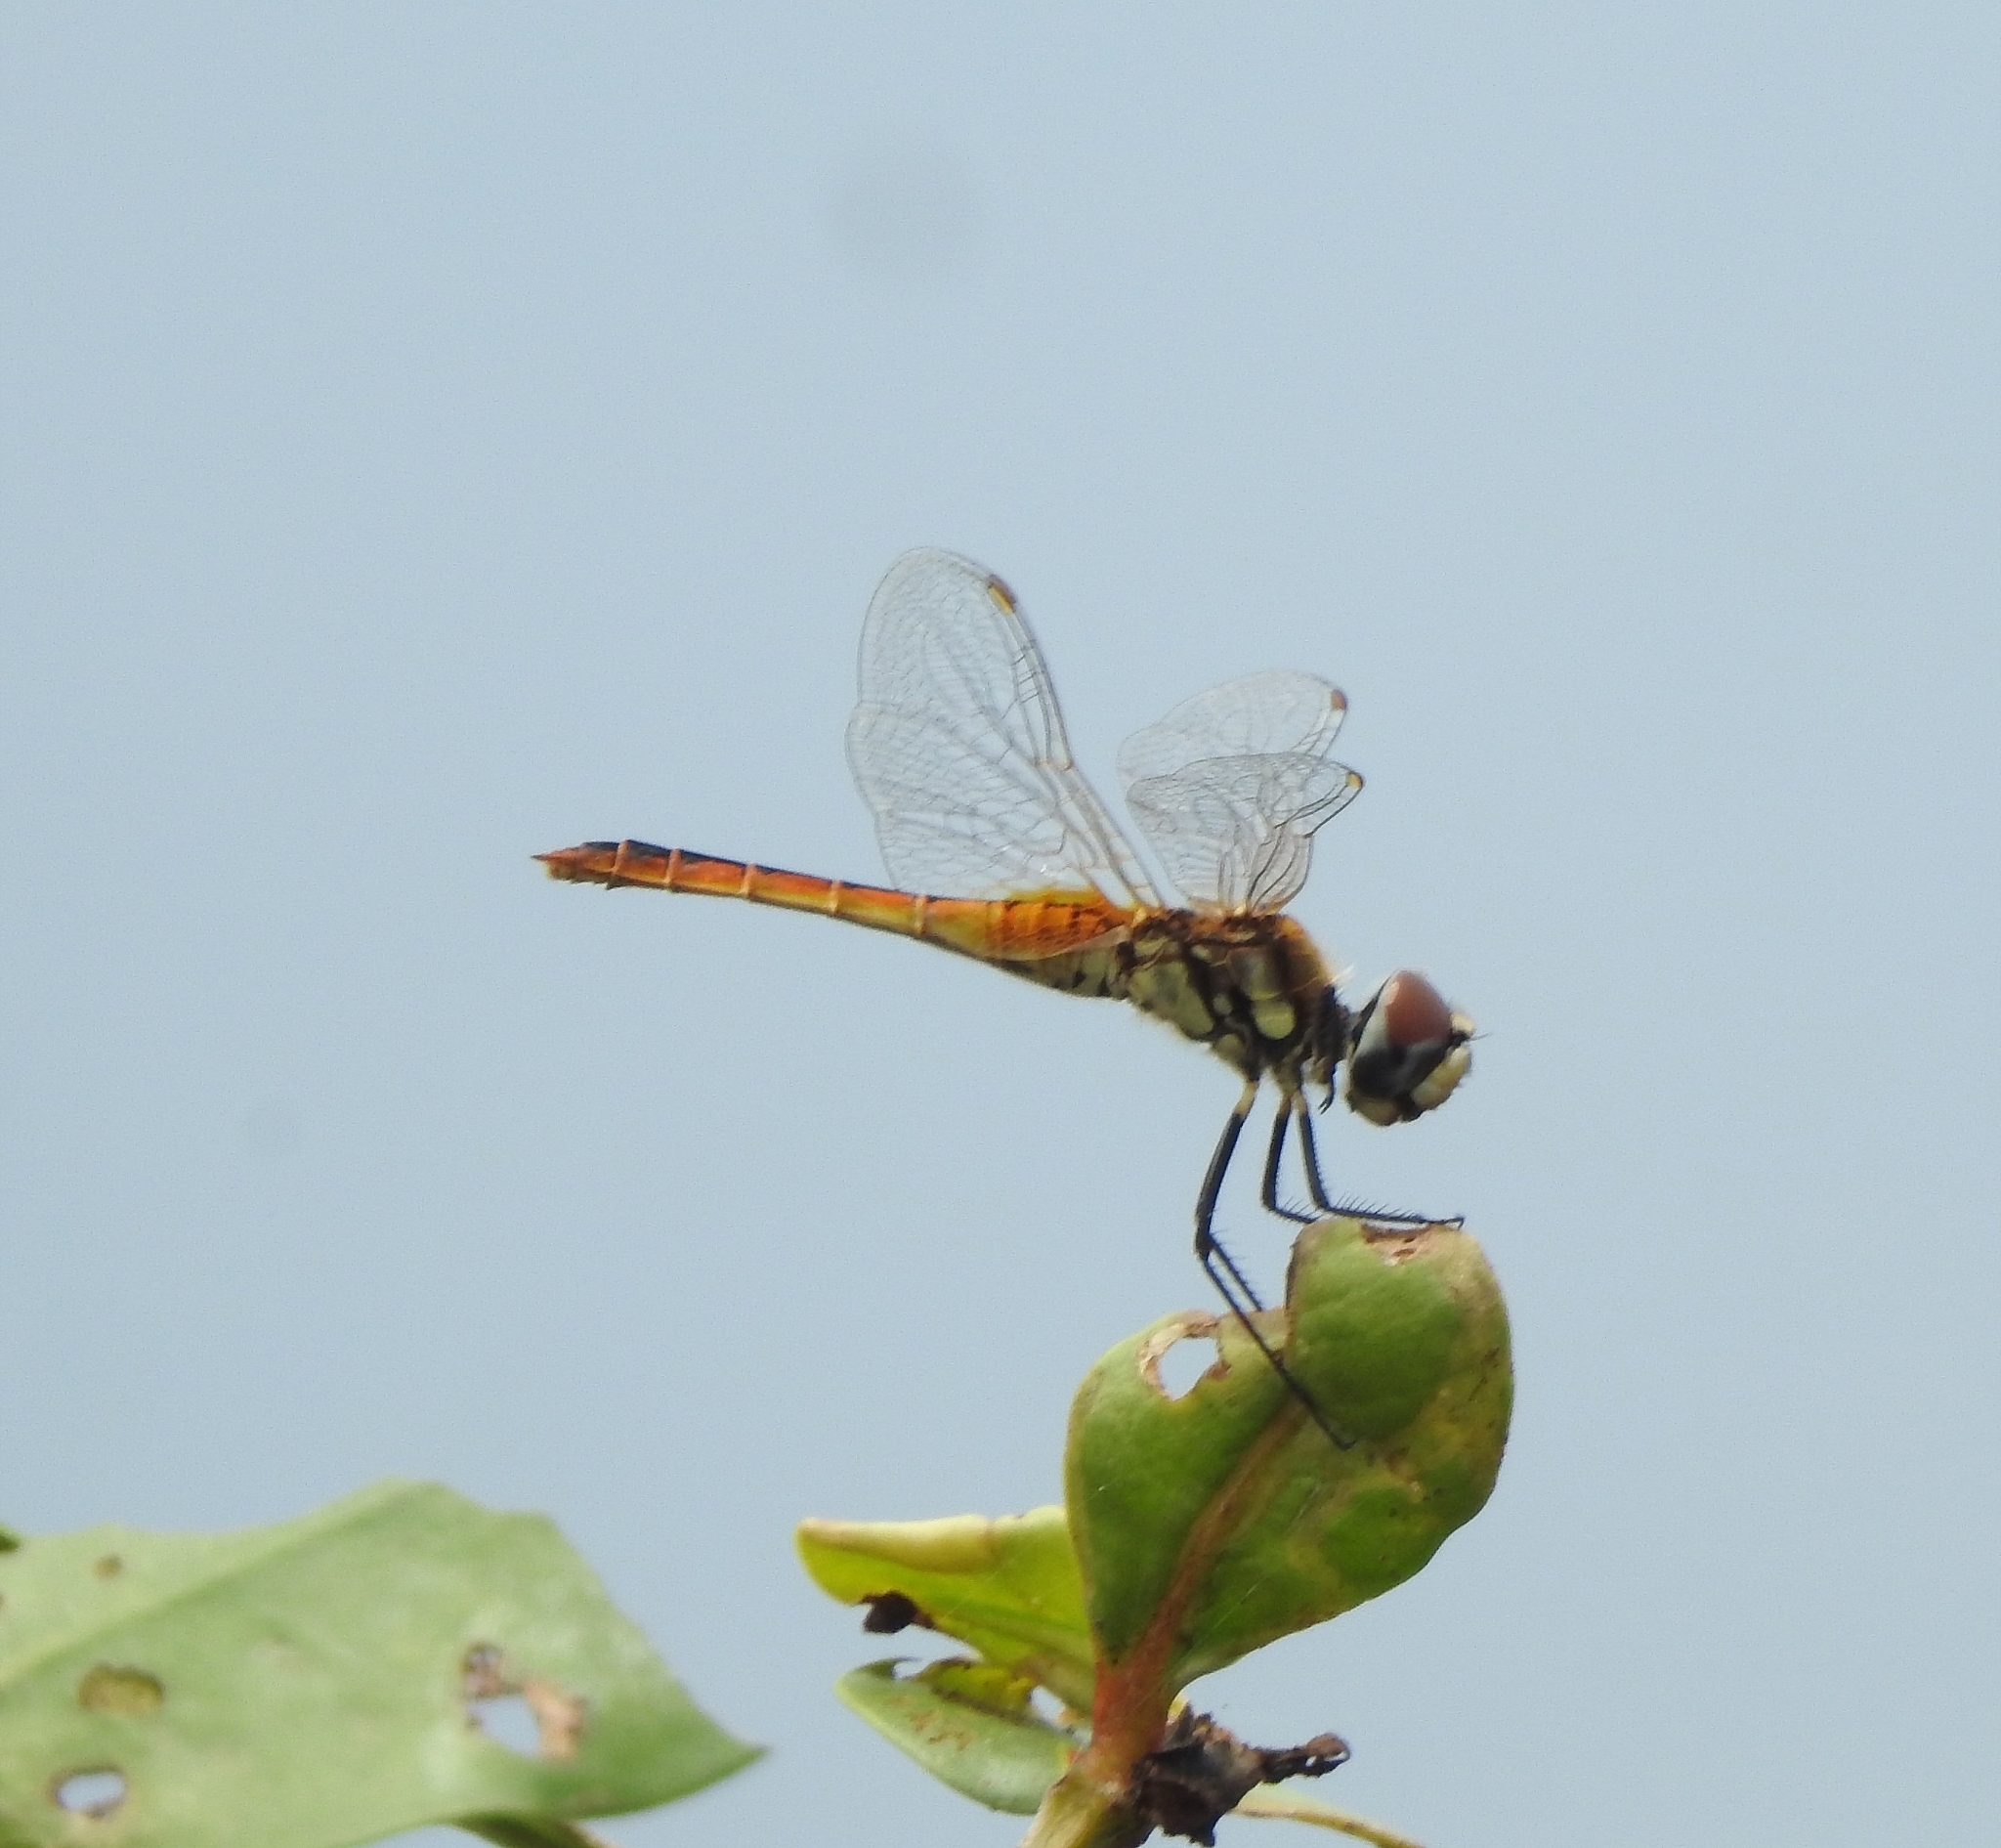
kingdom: Animalia
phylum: Arthropoda
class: Insecta
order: Odonata
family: Libellulidae
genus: Macrodiplax
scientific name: Macrodiplax cora
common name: Coastal glider
